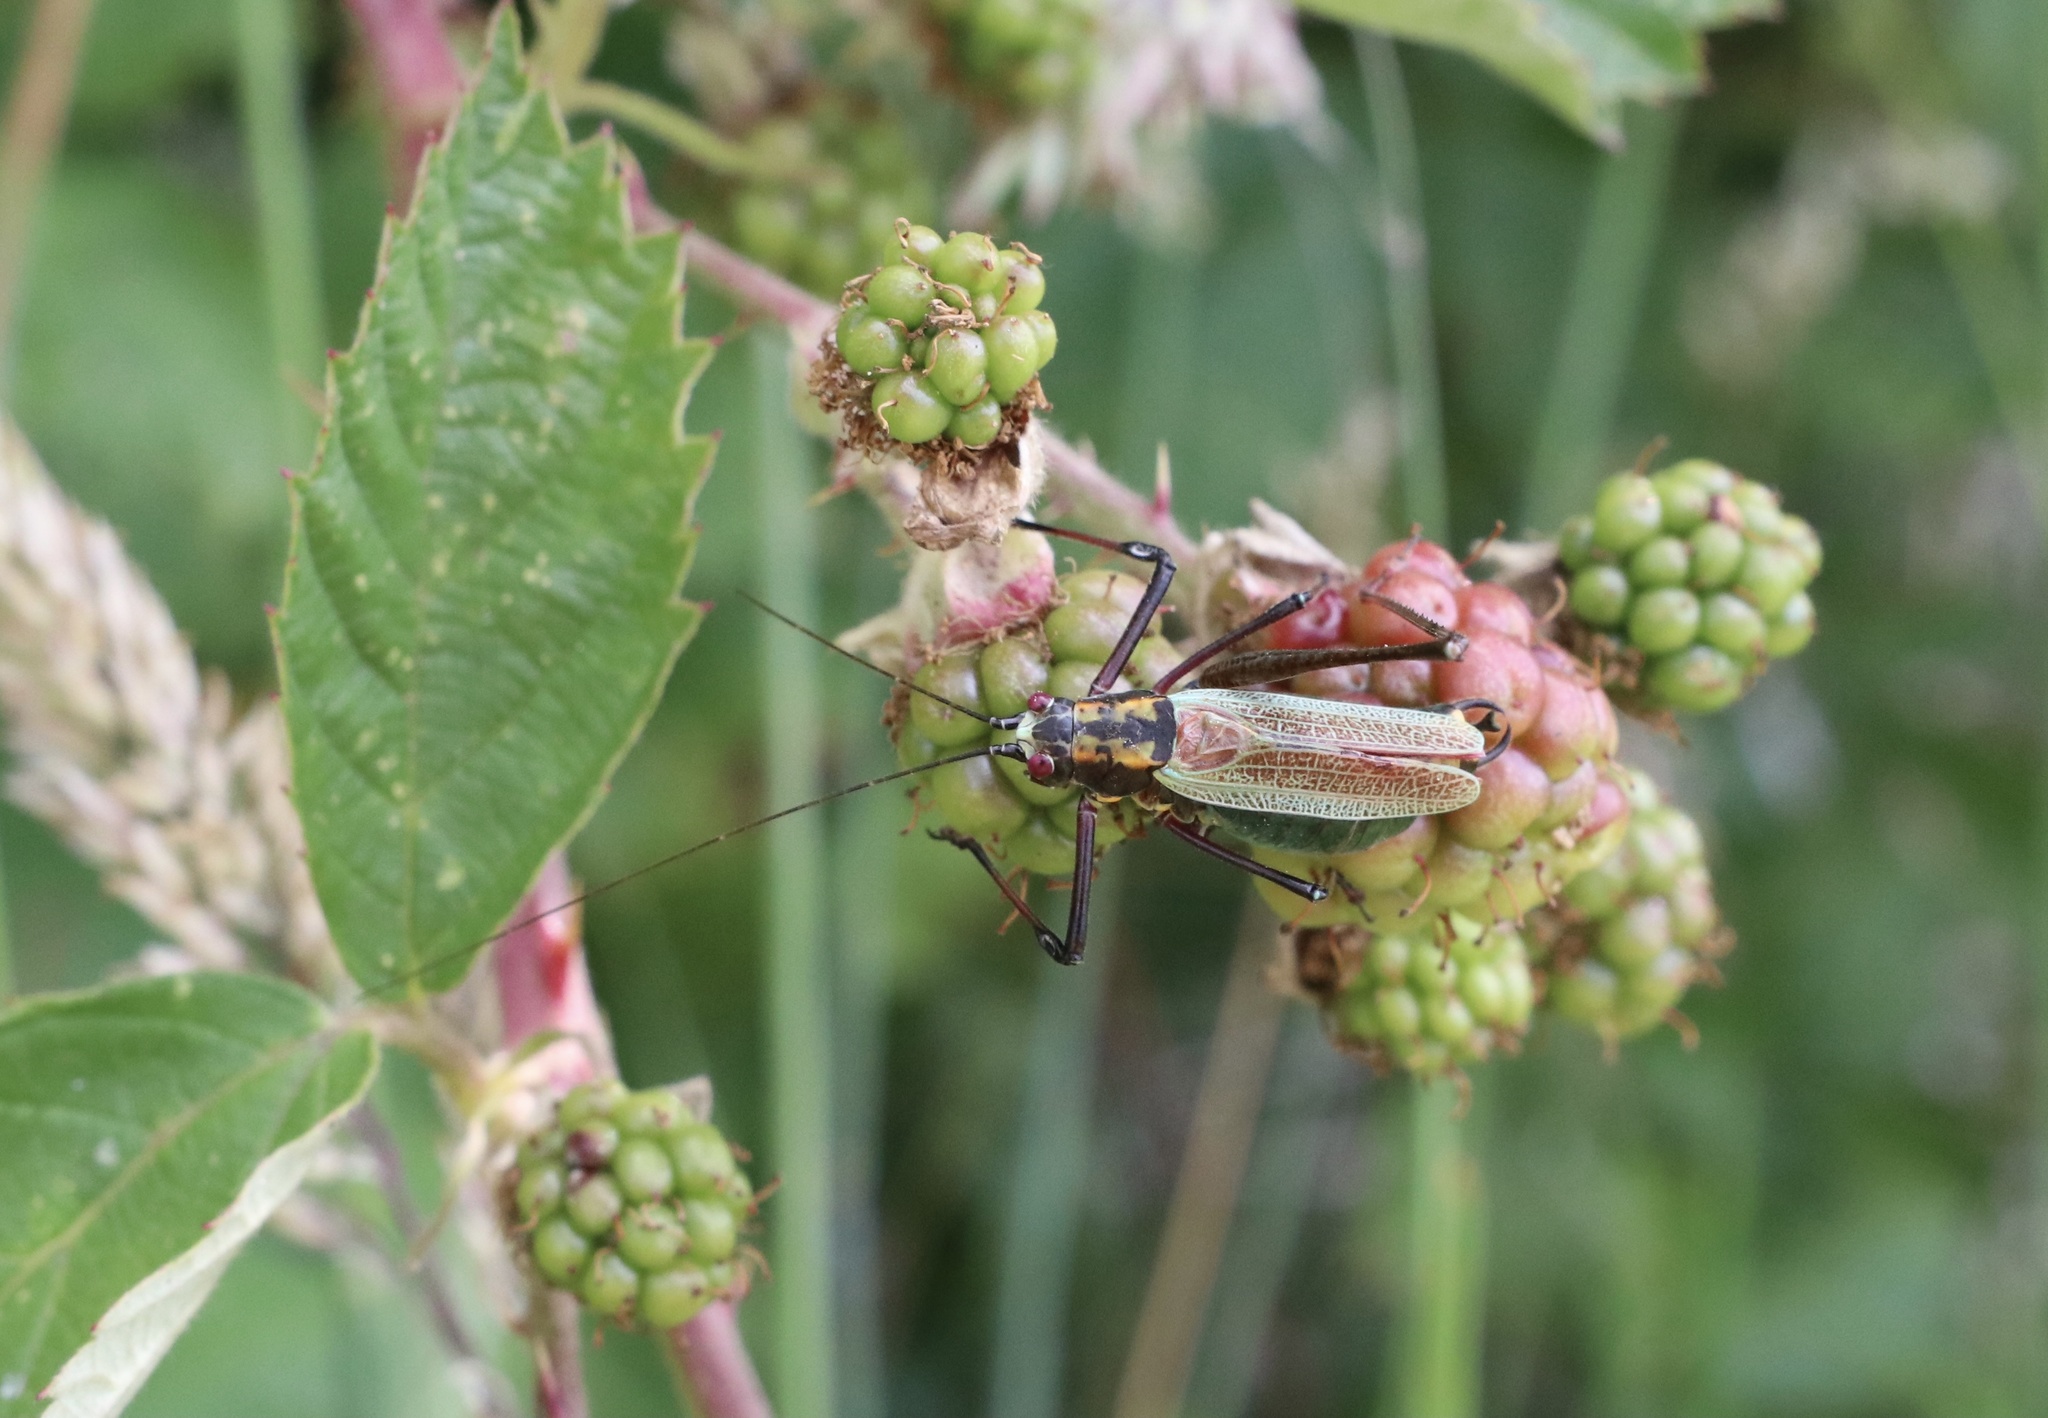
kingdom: Animalia
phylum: Arthropoda
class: Insecta
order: Orthoptera
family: Tettigoniidae
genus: Stenophyllia
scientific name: Stenophyllia modesta
